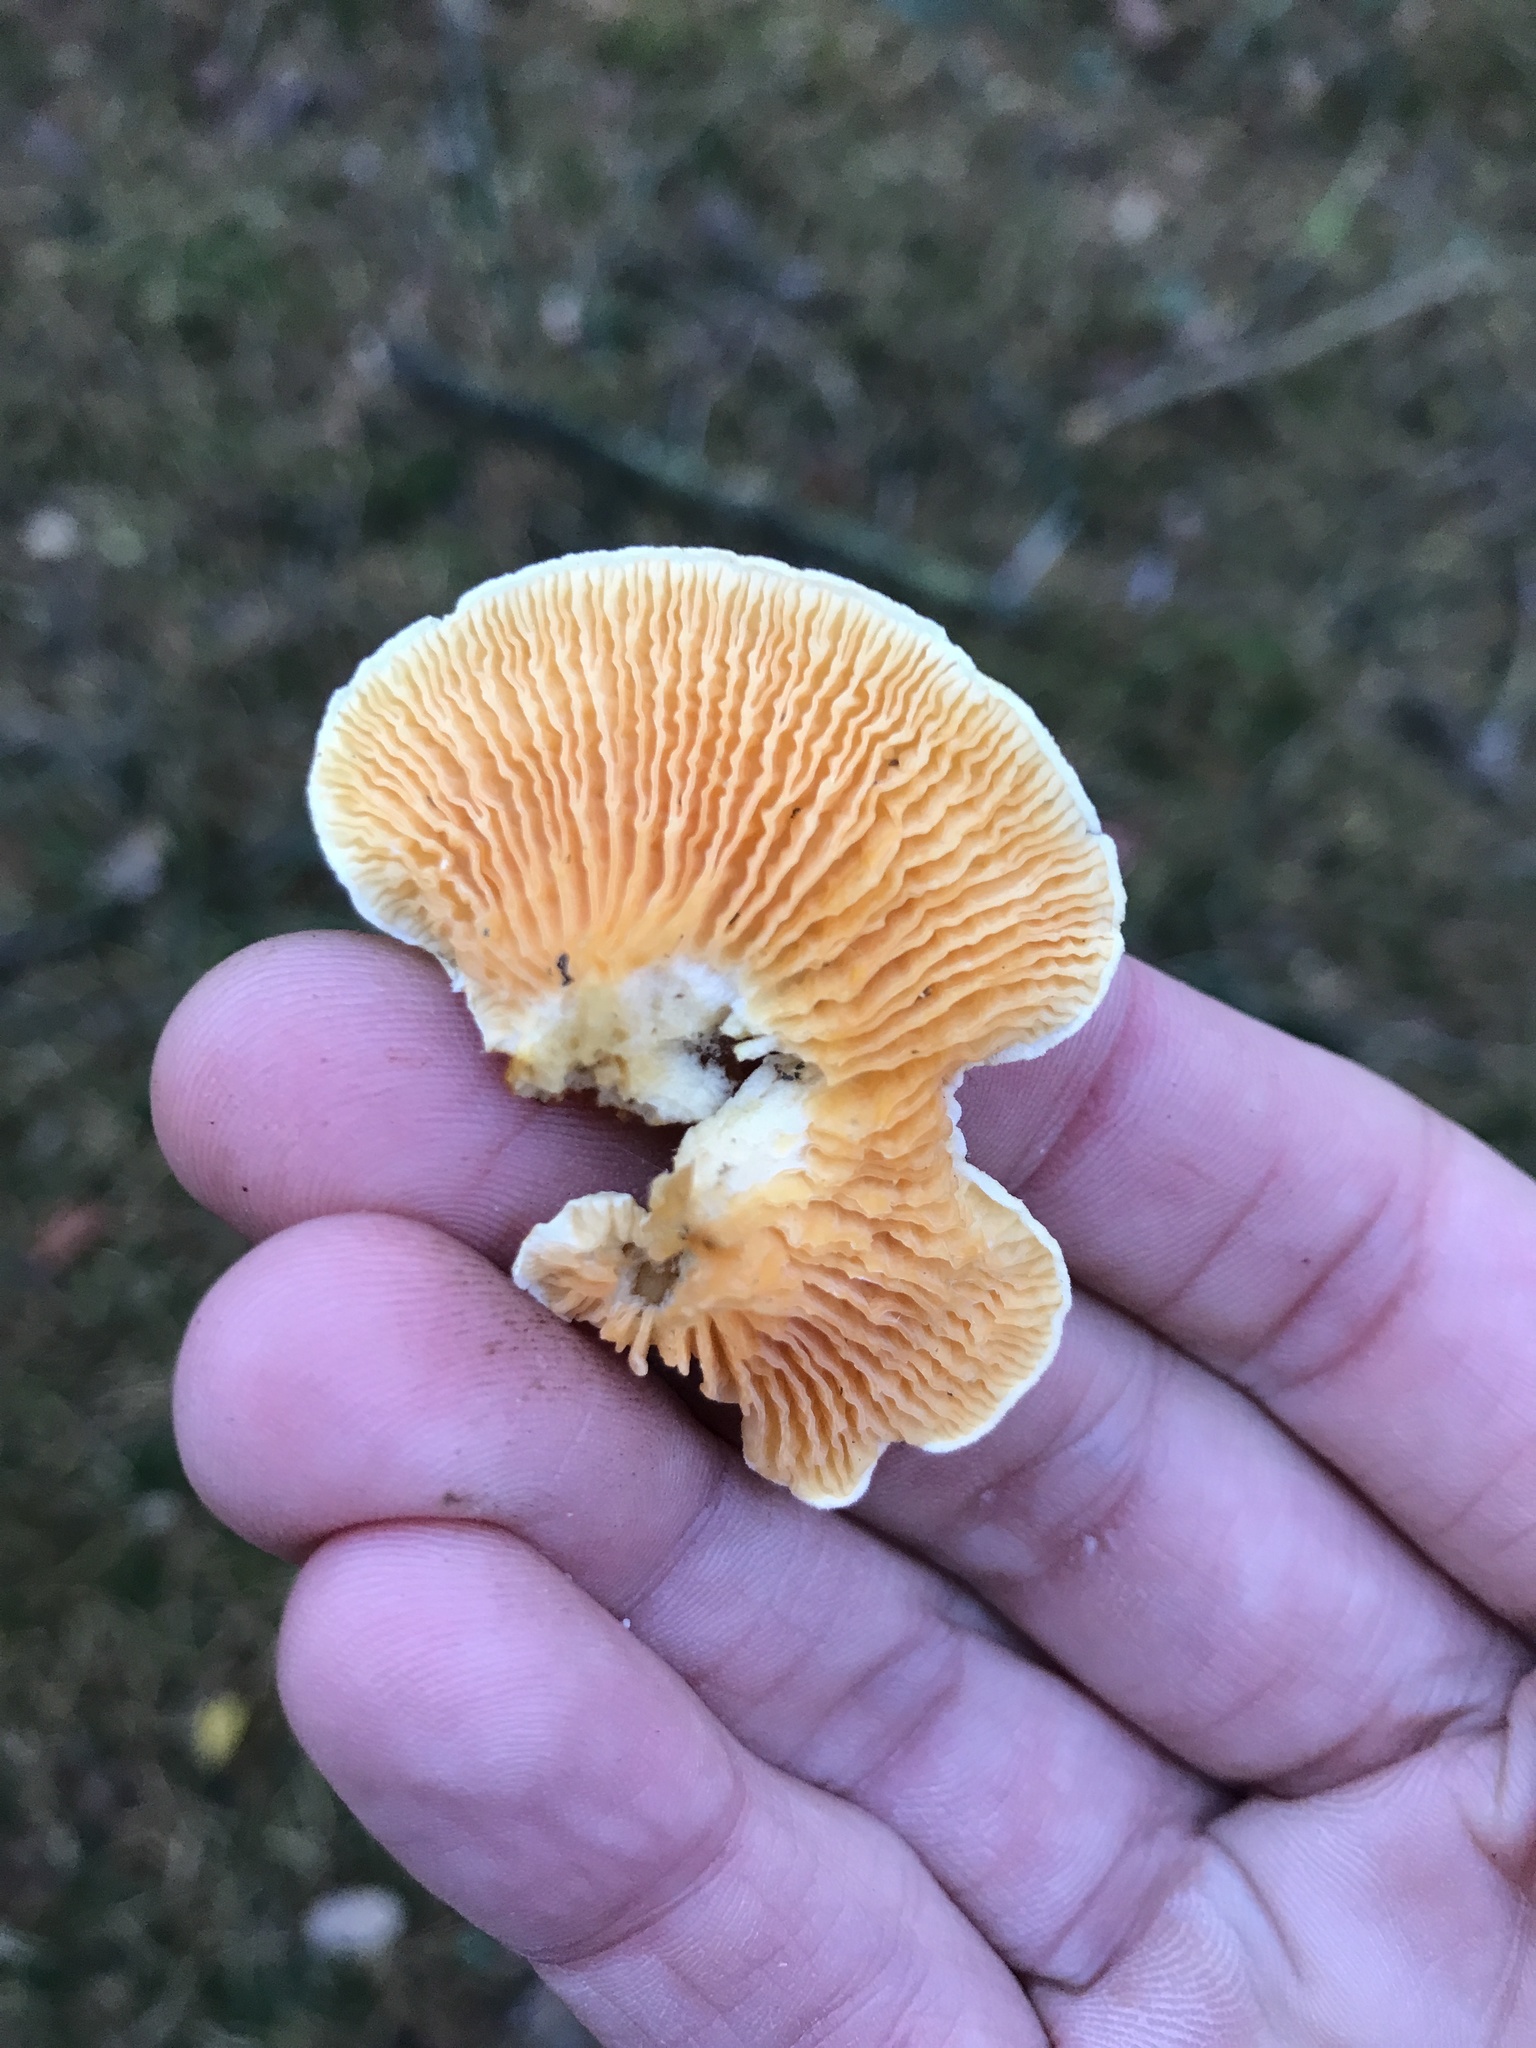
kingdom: Fungi
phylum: Basidiomycota
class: Agaricomycetes
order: Boletales
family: Hygrophoropsidaceae
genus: Hygrophoropsis
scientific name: Hygrophoropsis aurantiaca
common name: False chanterelle
